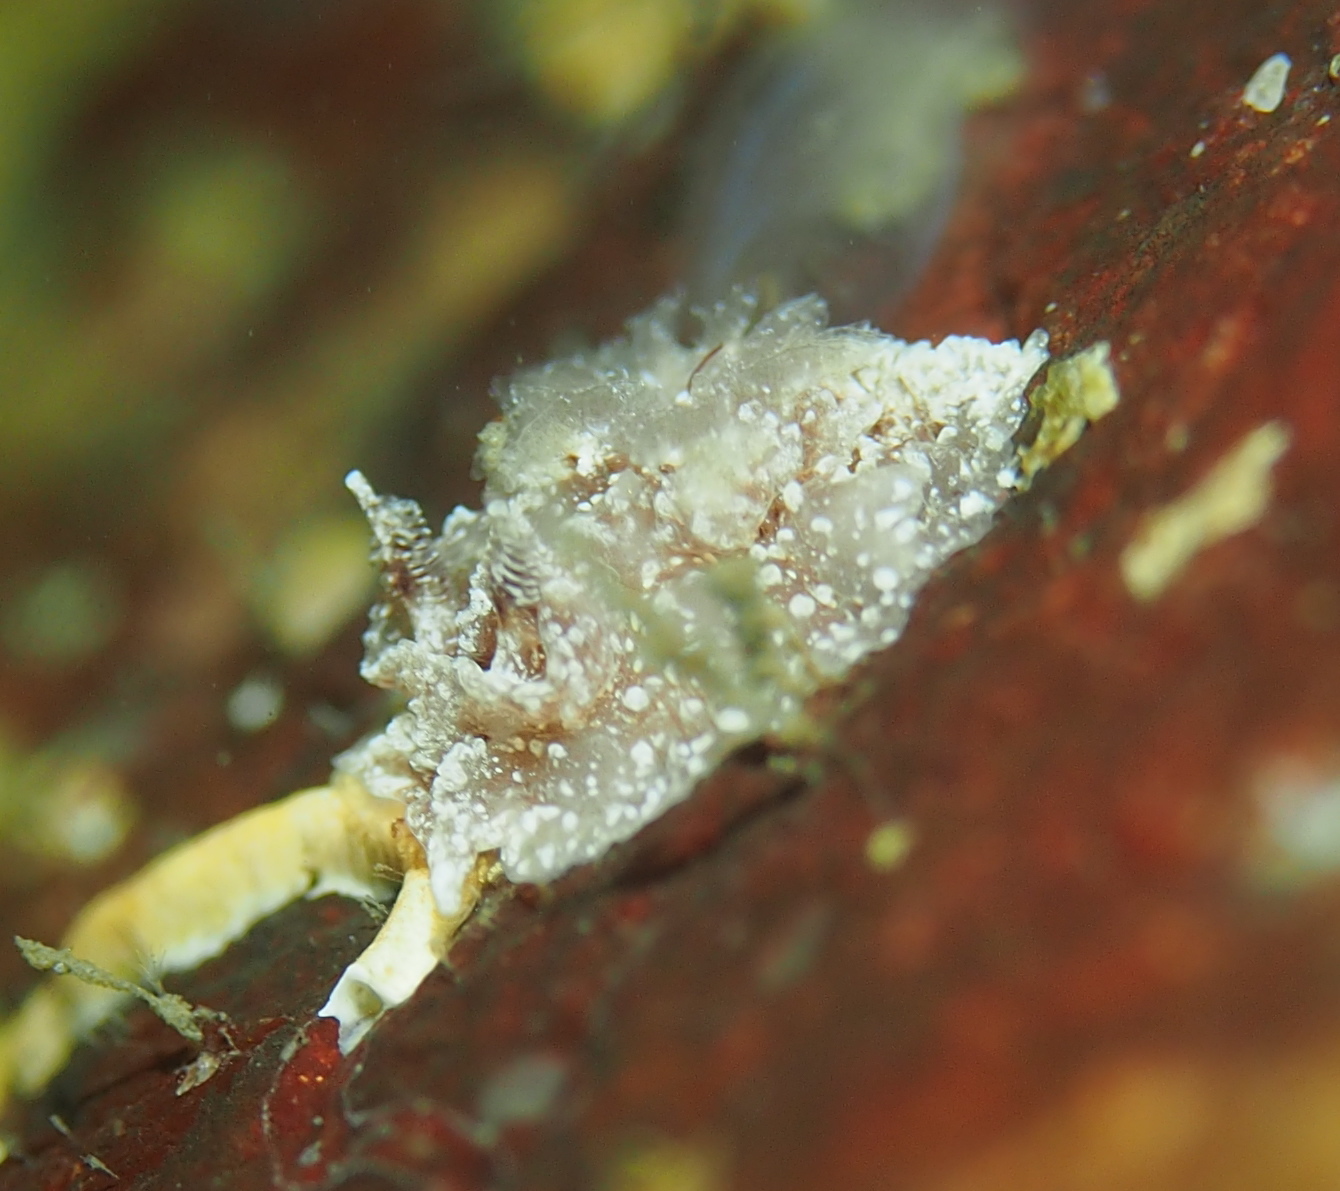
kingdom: Animalia
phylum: Mollusca
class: Gastropoda
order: Nudibranchia
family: Goniodorididae
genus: Pelagella
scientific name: Pelagella castanea
